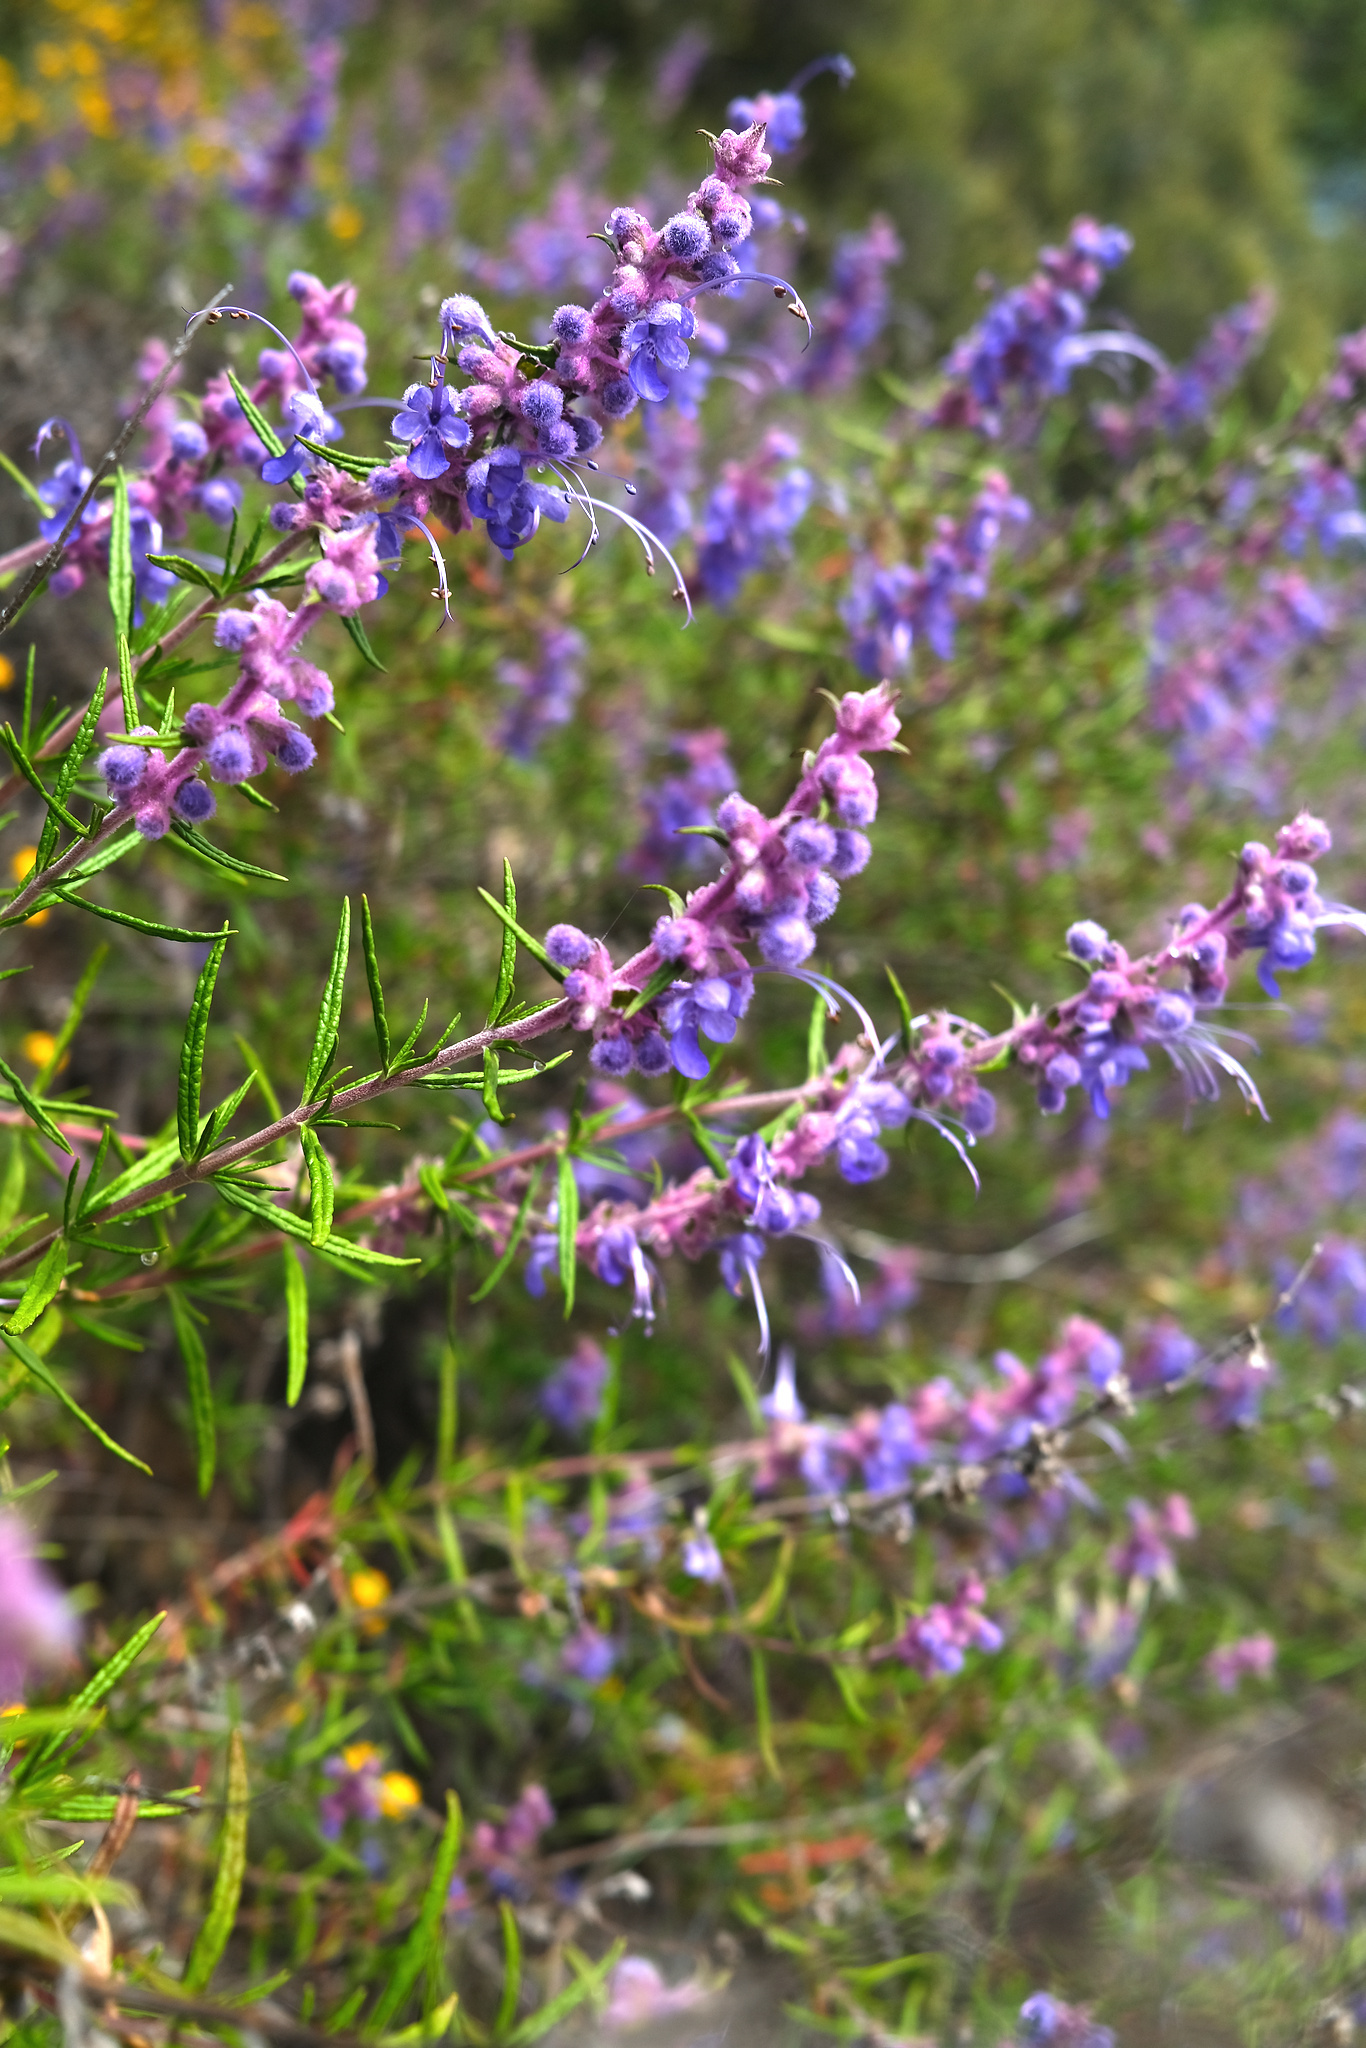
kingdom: Plantae
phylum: Tracheophyta
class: Magnoliopsida
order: Lamiales
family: Lamiaceae
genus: Trichostema
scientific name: Trichostema lanatum
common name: Woolly bluecurls
